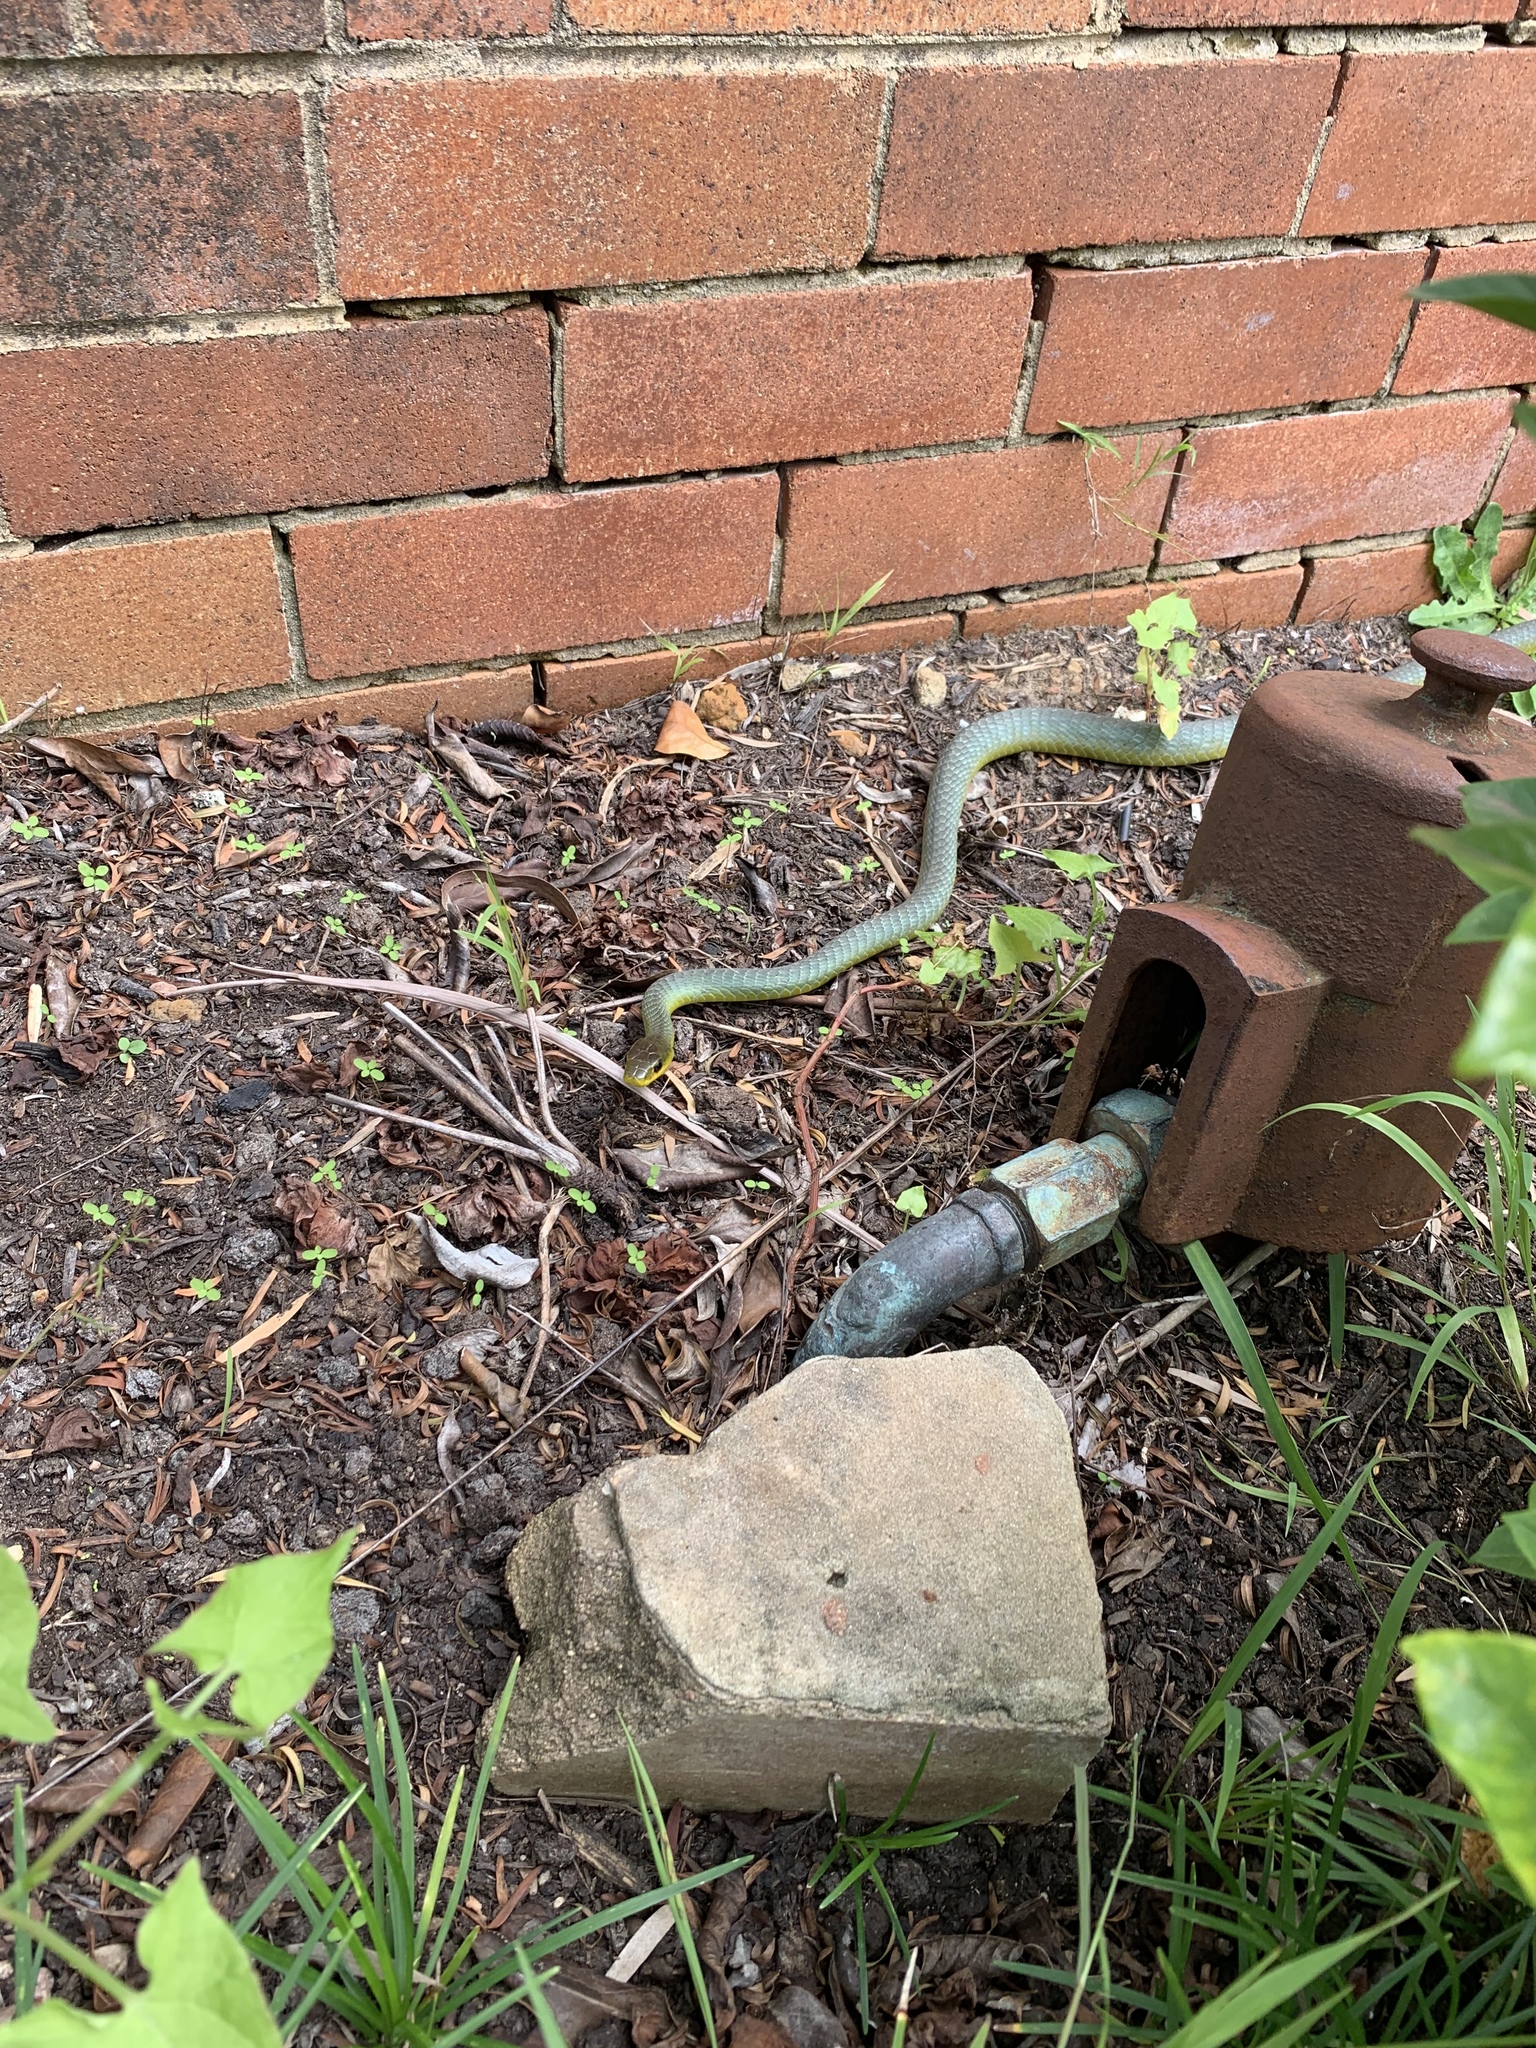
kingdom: Animalia
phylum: Chordata
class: Squamata
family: Colubridae
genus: Dendrelaphis
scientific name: Dendrelaphis punctulatus
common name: Common tree snake
